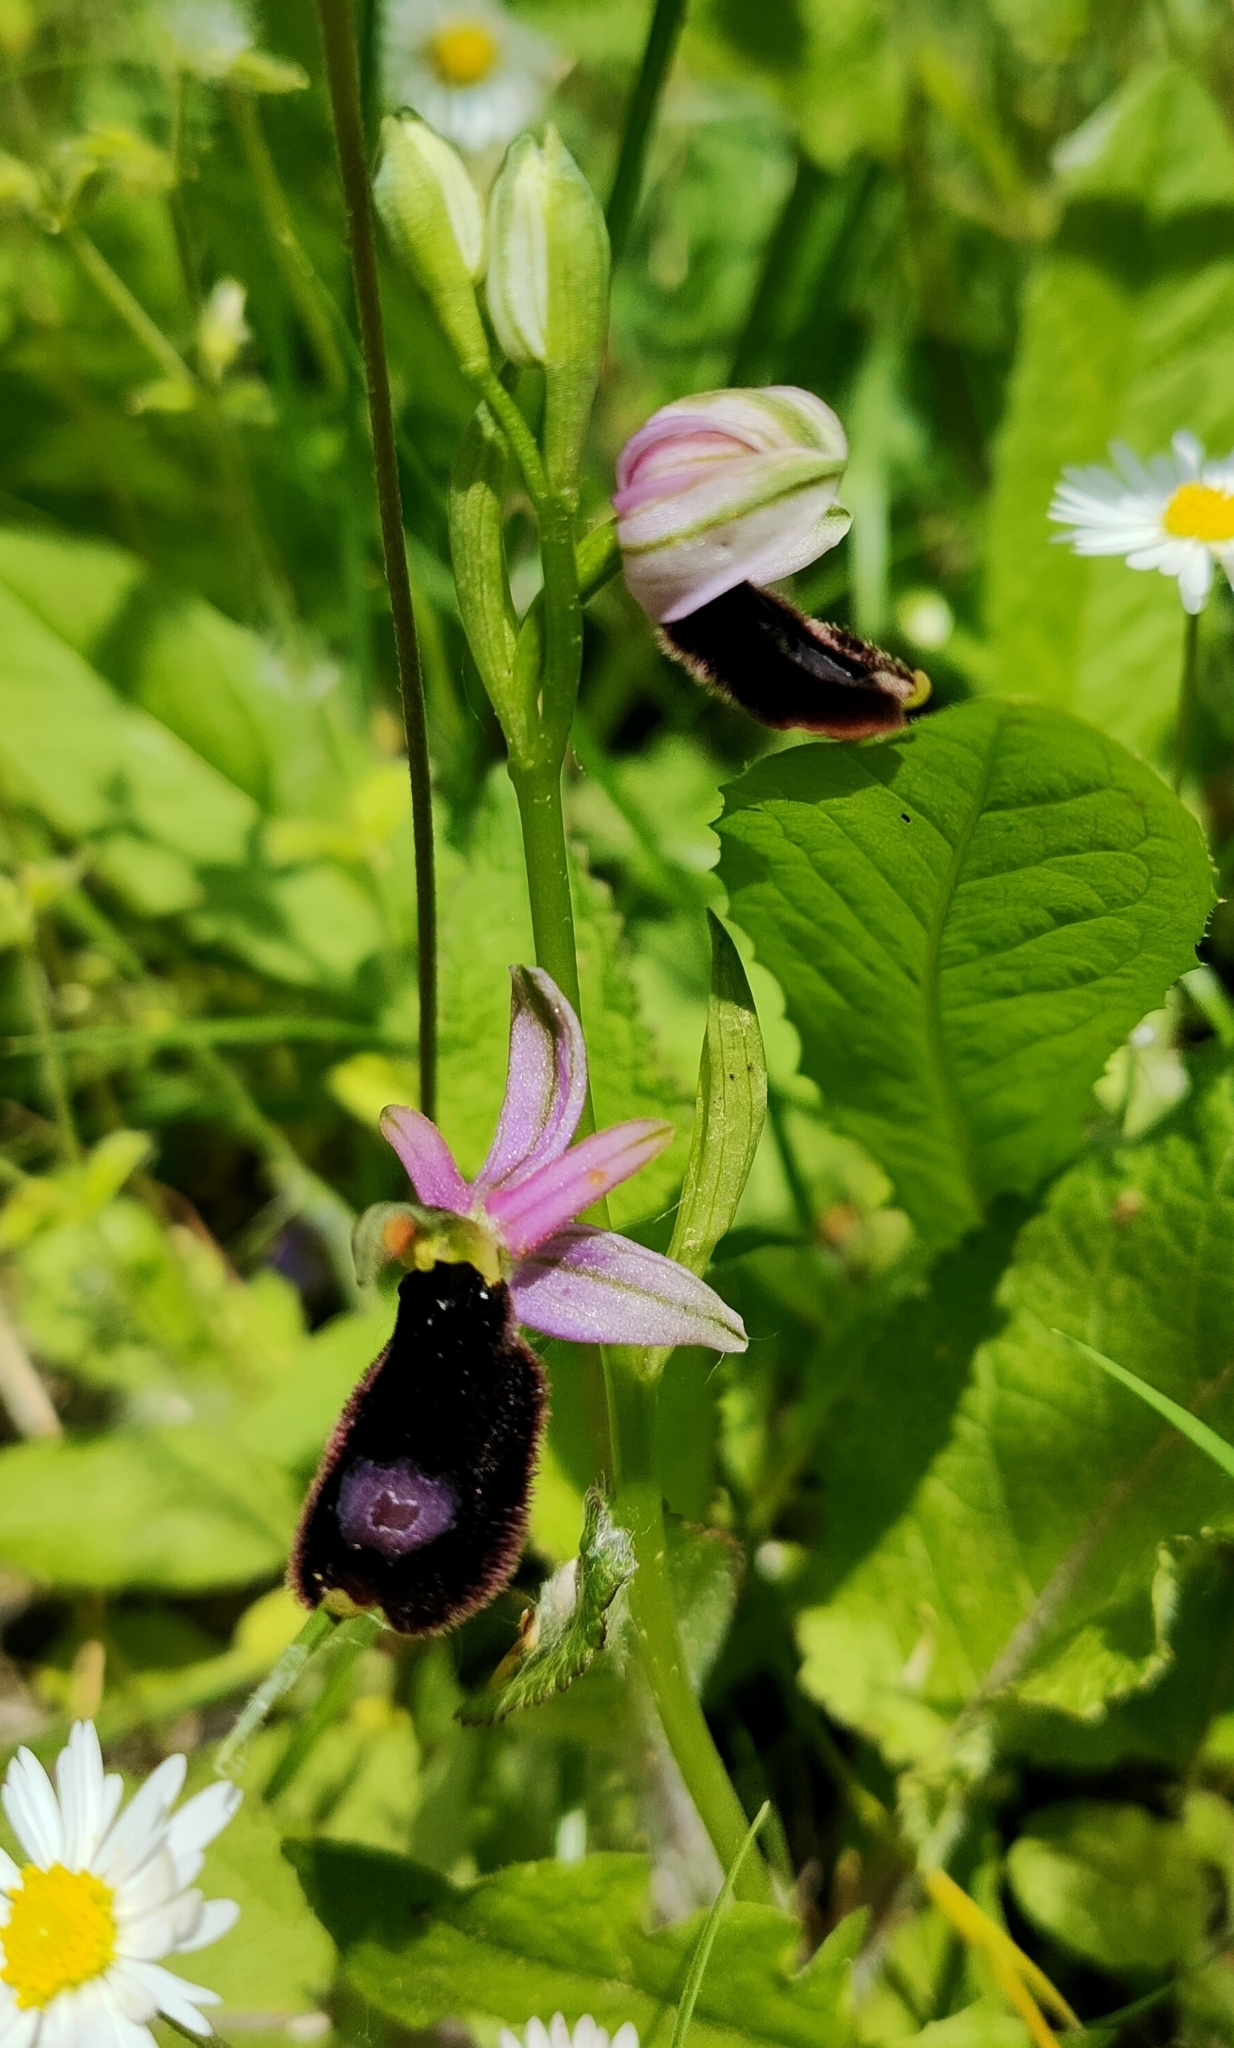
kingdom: Plantae
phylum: Tracheophyta
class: Liliopsida
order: Asparagales
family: Orchidaceae
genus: Ophrys
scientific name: Ophrys bertolonii
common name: Bertoloni's bee orchid
